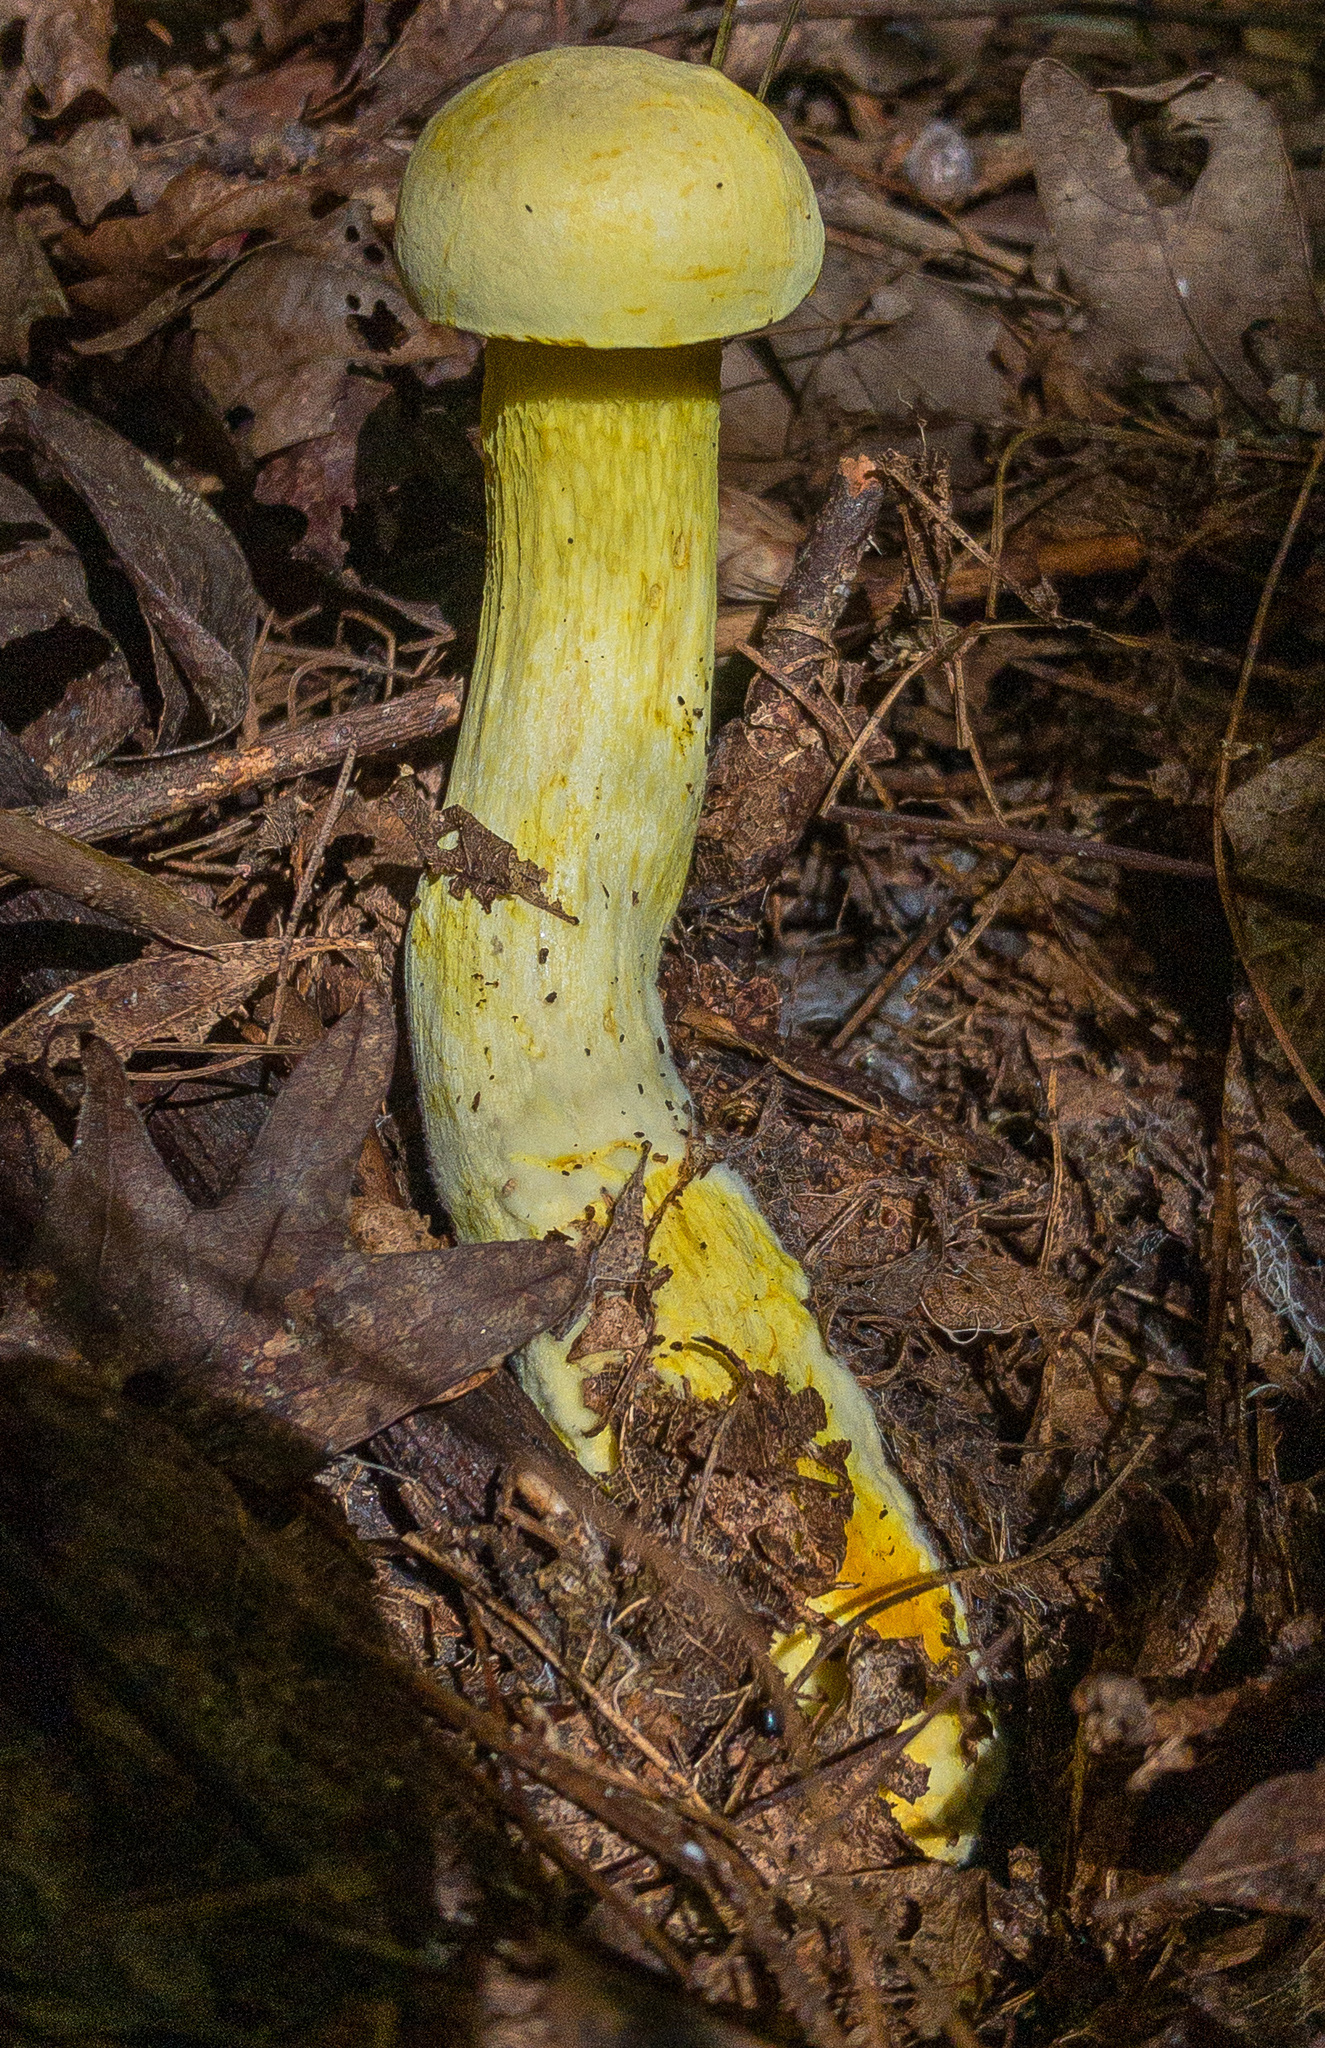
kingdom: Fungi
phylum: Basidiomycota
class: Agaricomycetes
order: Boletales
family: Boletaceae
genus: Retiboletus
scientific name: Retiboletus ornatipes
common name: Ornate-stalked bolete
